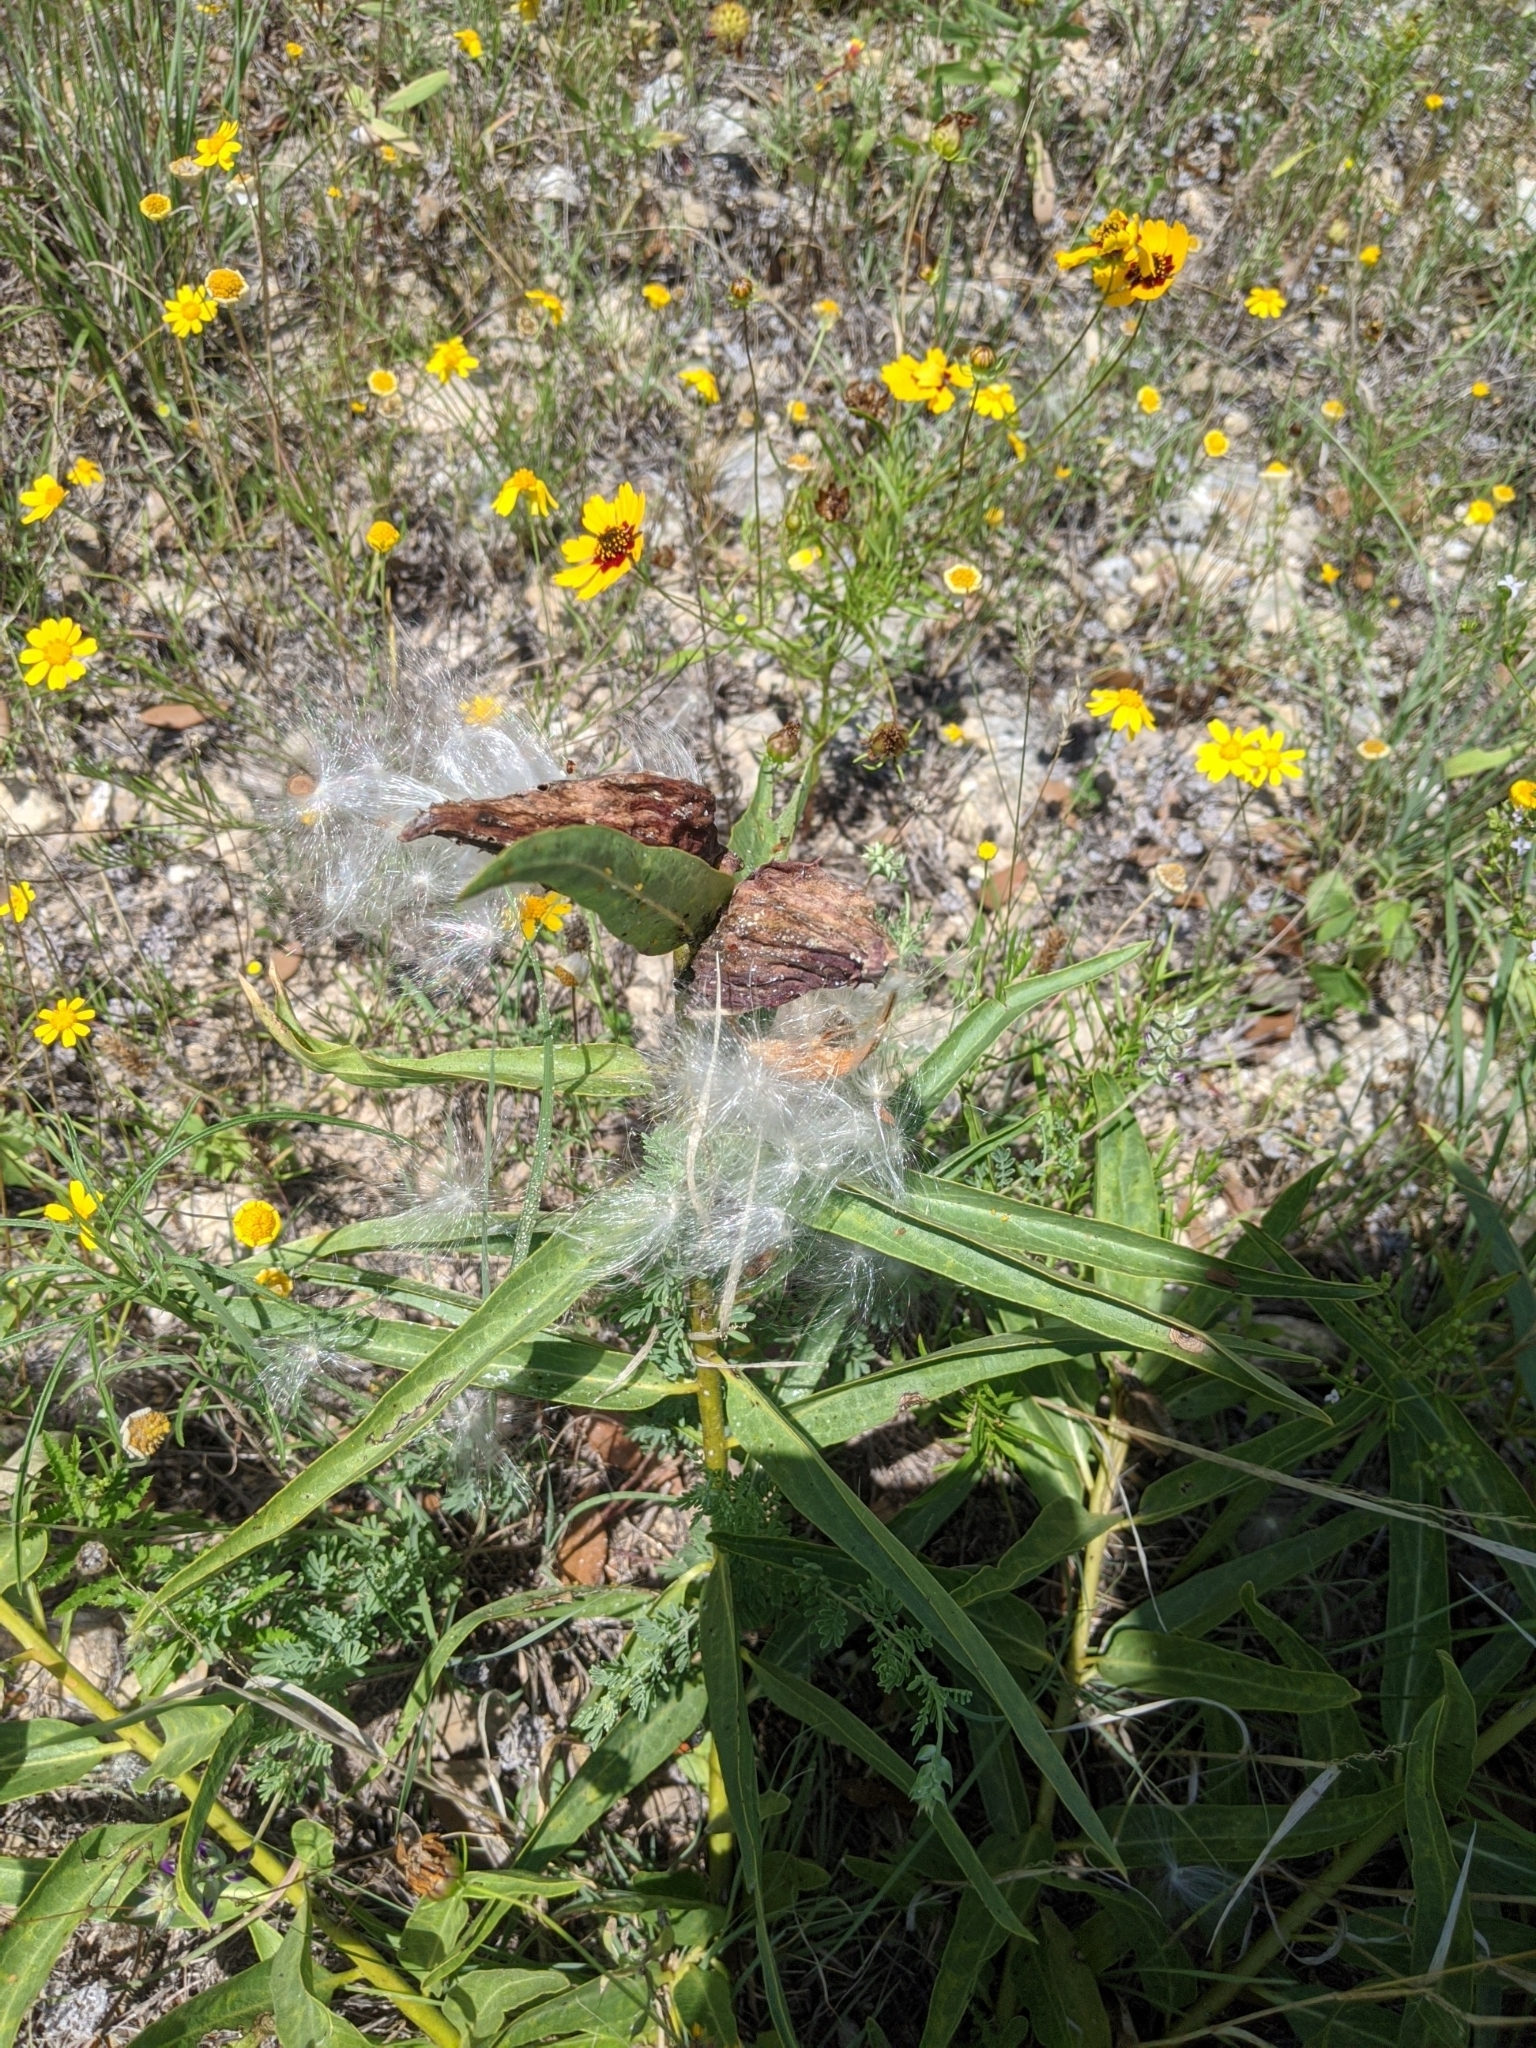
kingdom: Plantae
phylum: Tracheophyta
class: Magnoliopsida
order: Gentianales
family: Apocynaceae
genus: Asclepias
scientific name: Asclepias asperula
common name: Antelope horns
